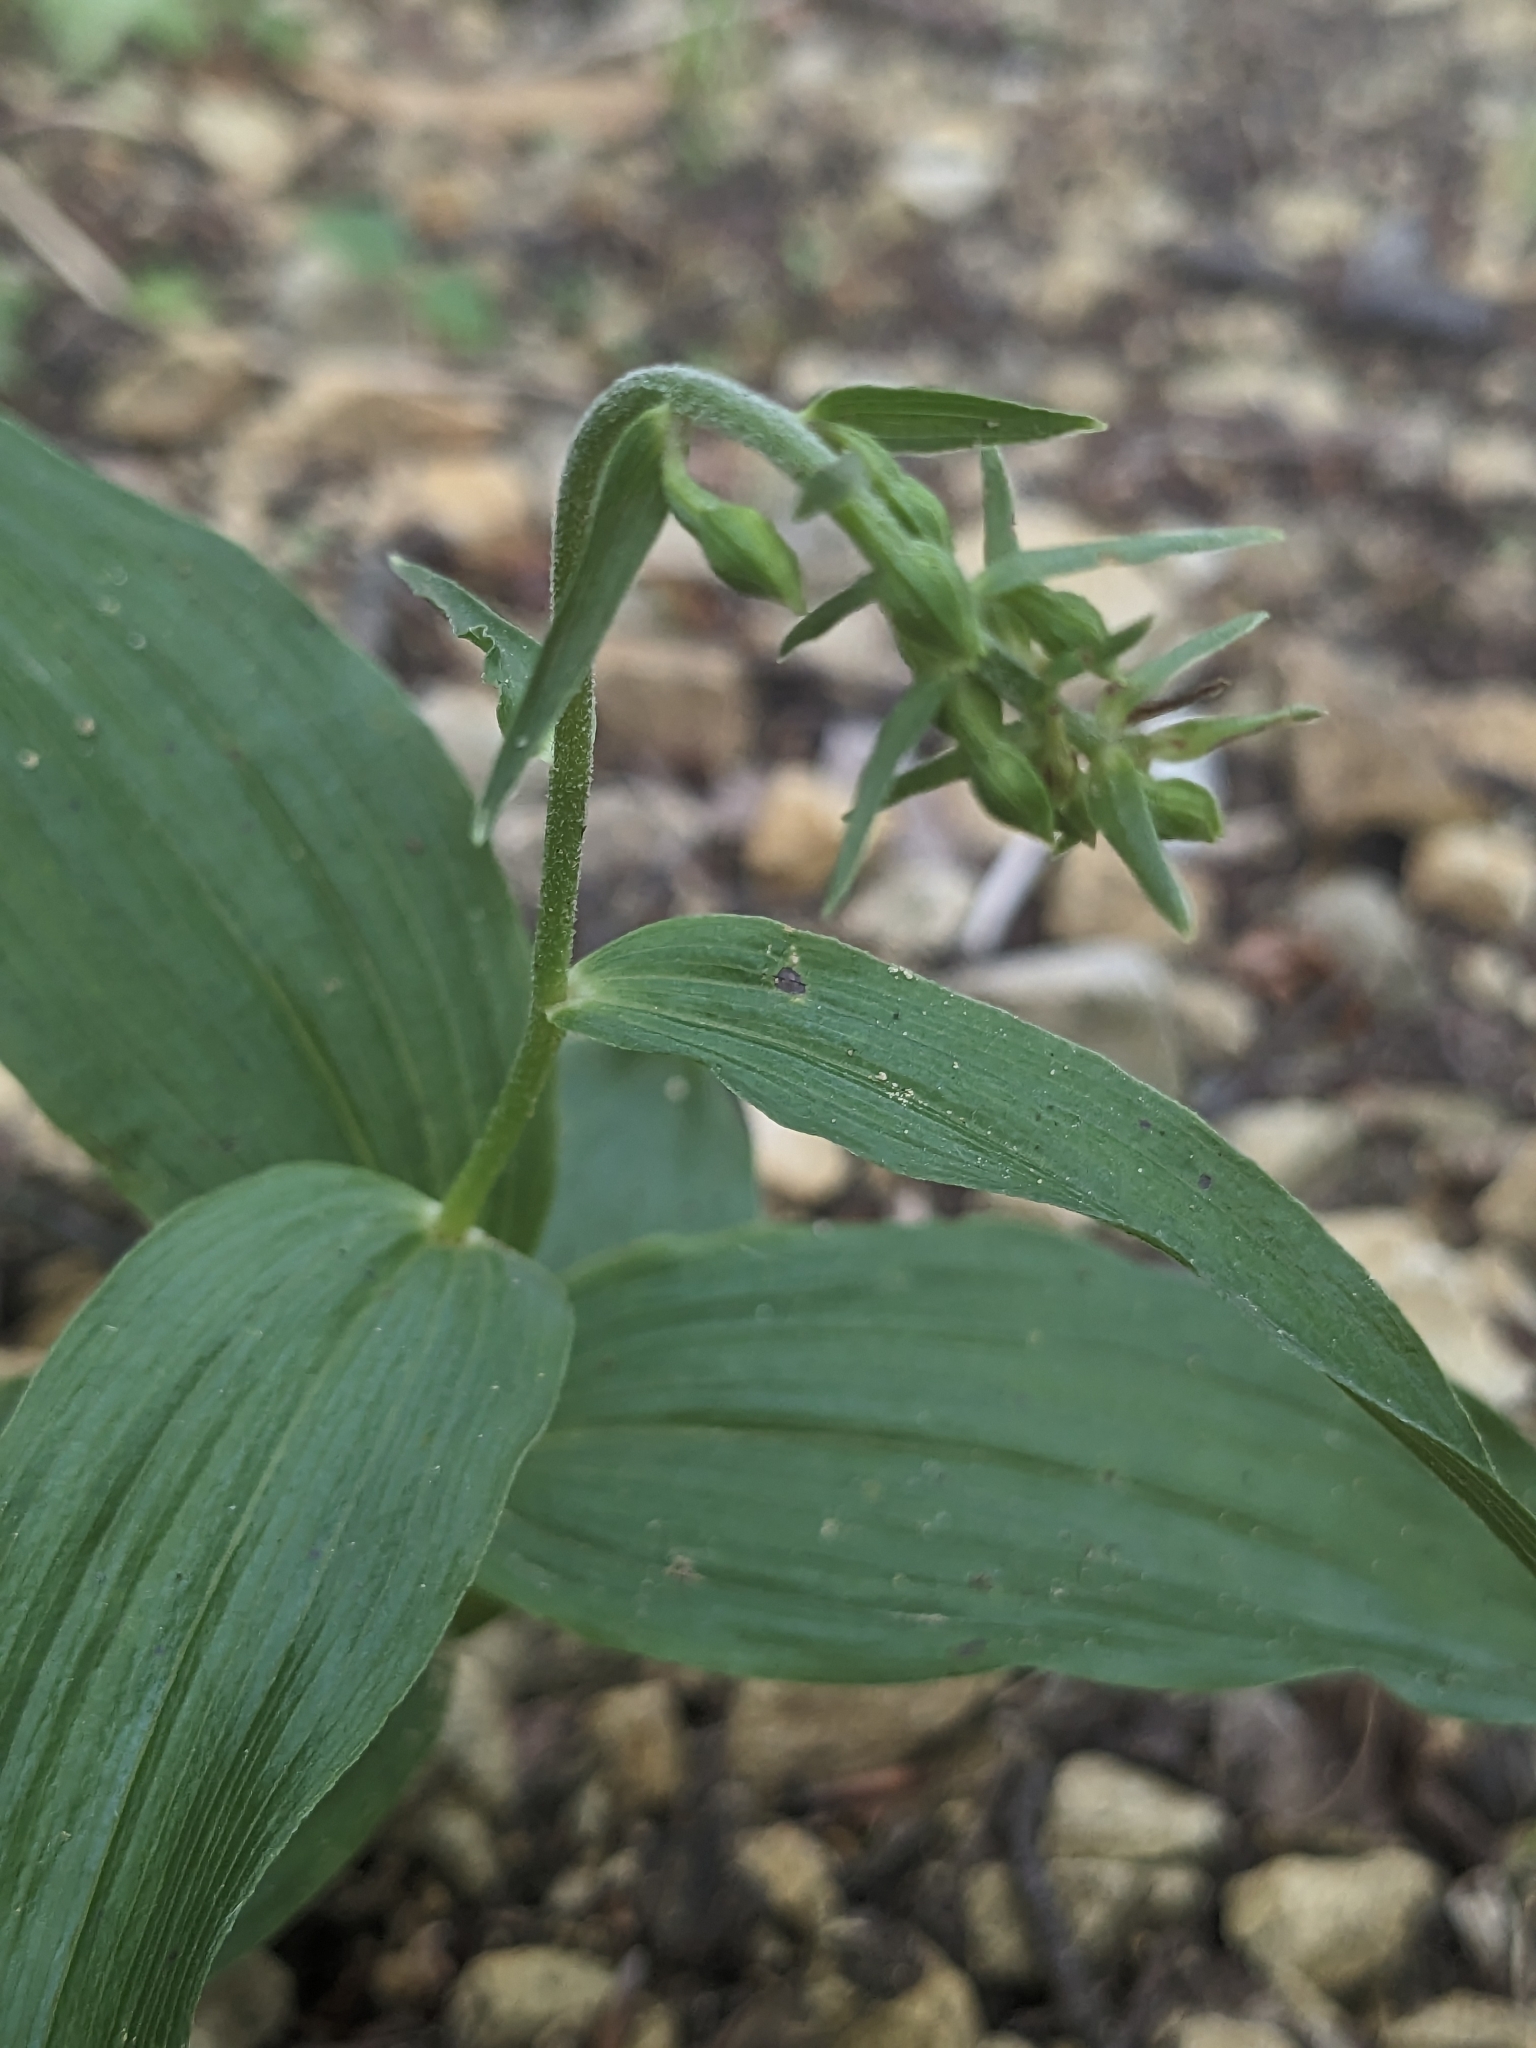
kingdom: Plantae
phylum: Tracheophyta
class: Liliopsida
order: Asparagales
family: Orchidaceae
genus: Epipactis
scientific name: Epipactis helleborine
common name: Broad-leaved helleborine
